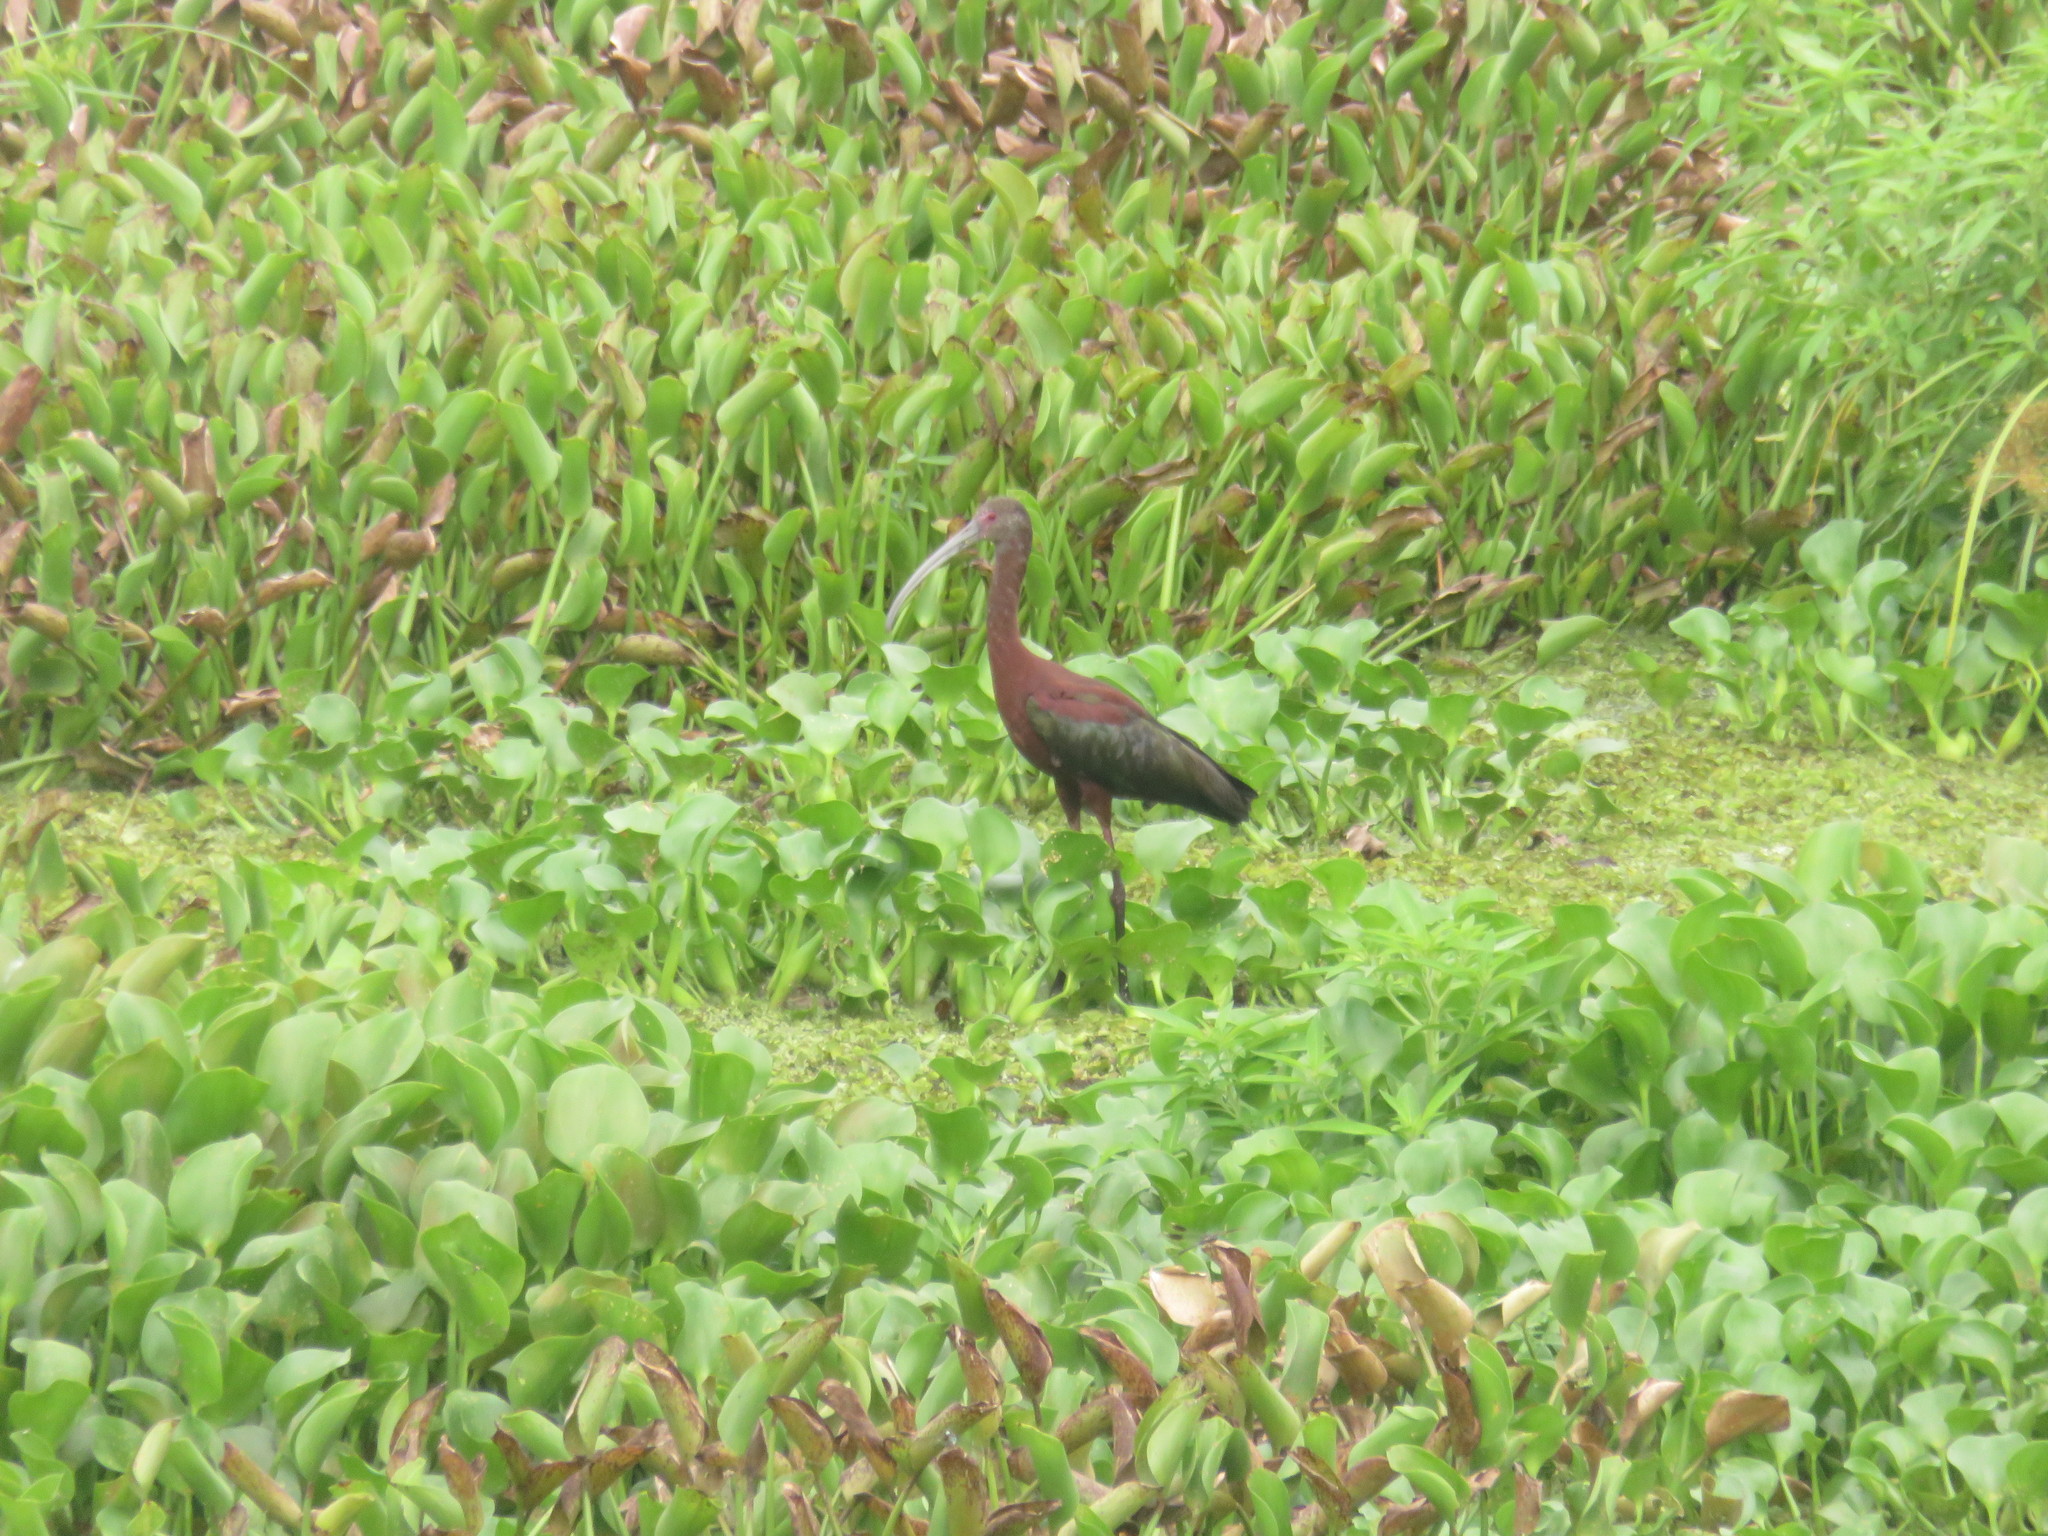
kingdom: Animalia
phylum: Chordata
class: Aves
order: Pelecaniformes
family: Threskiornithidae
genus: Plegadis
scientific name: Plegadis falcinellus
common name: Glossy ibis
